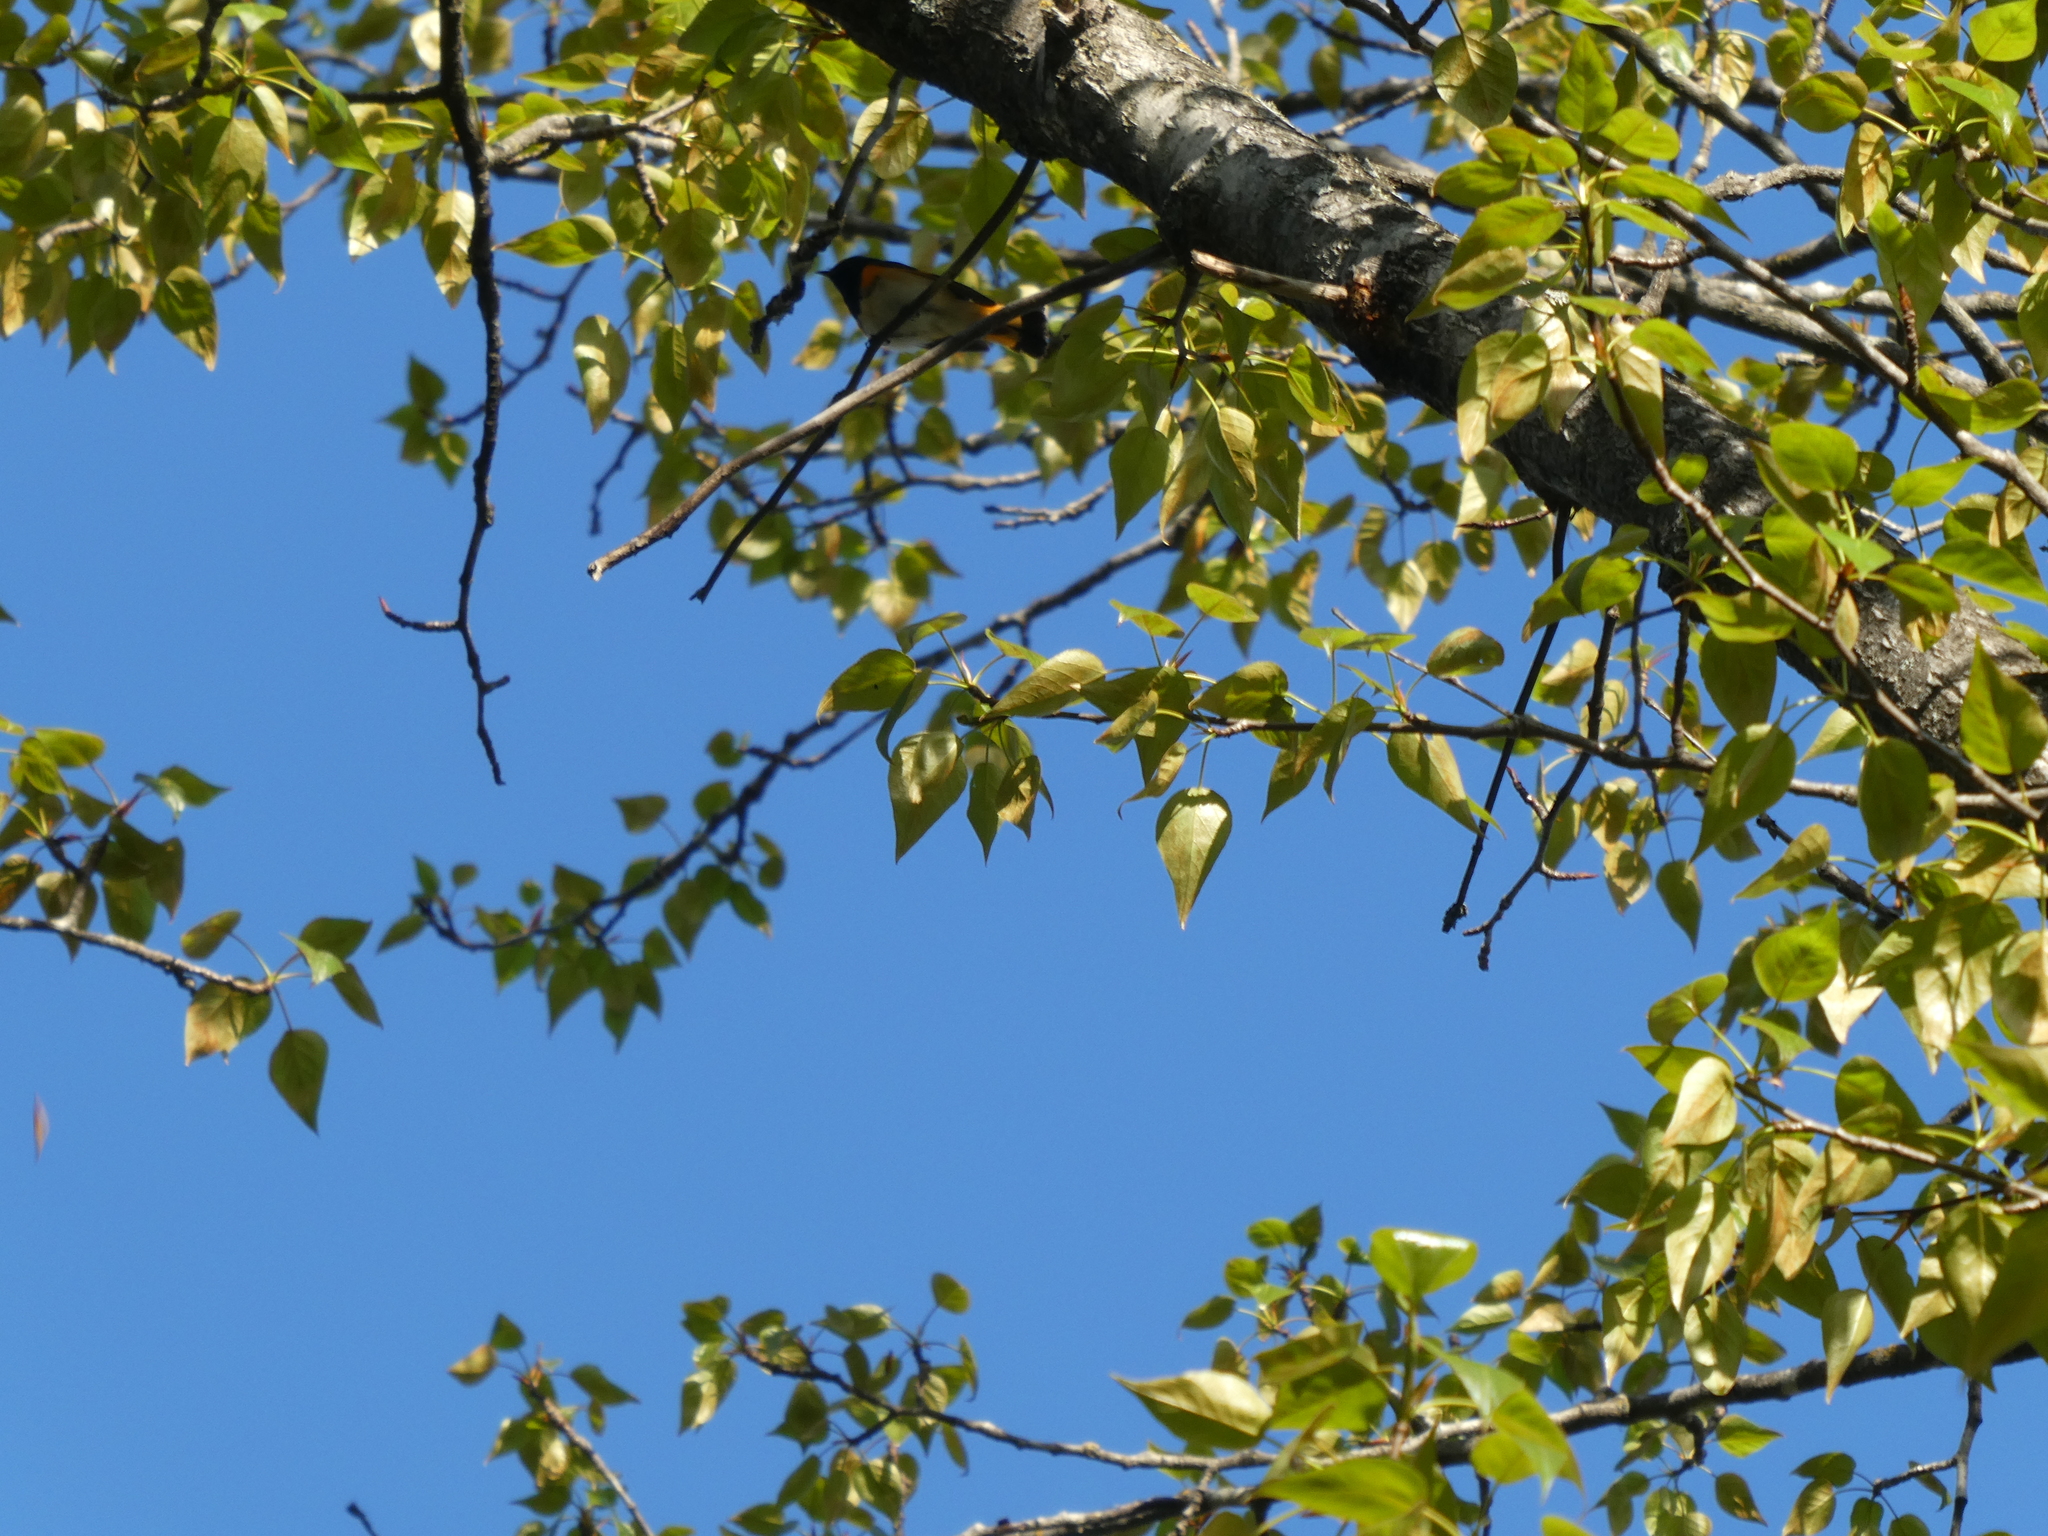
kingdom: Animalia
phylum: Chordata
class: Aves
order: Passeriformes
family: Parulidae
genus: Setophaga
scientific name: Setophaga ruticilla
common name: American redstart
